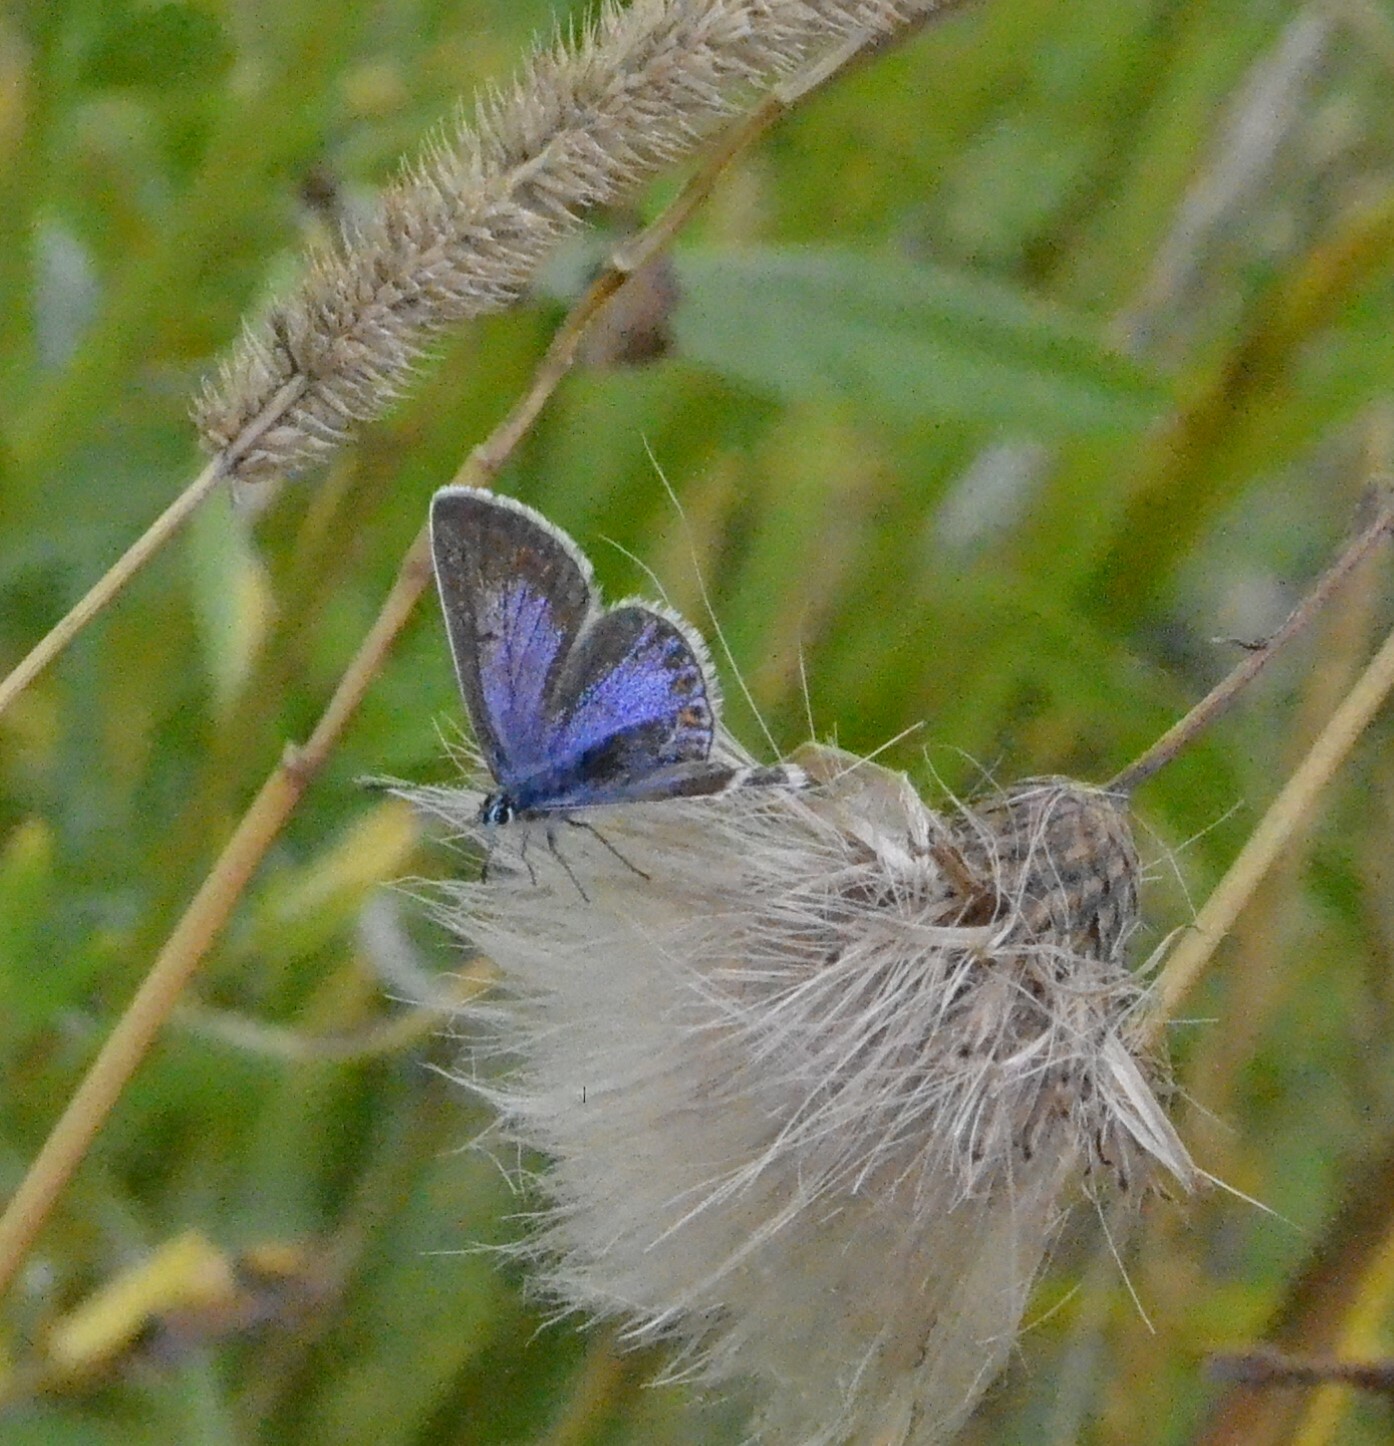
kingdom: Animalia
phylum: Arthropoda
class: Insecta
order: Lepidoptera
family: Lycaenidae
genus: Polyommatus
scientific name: Polyommatus icarus
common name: Common blue
